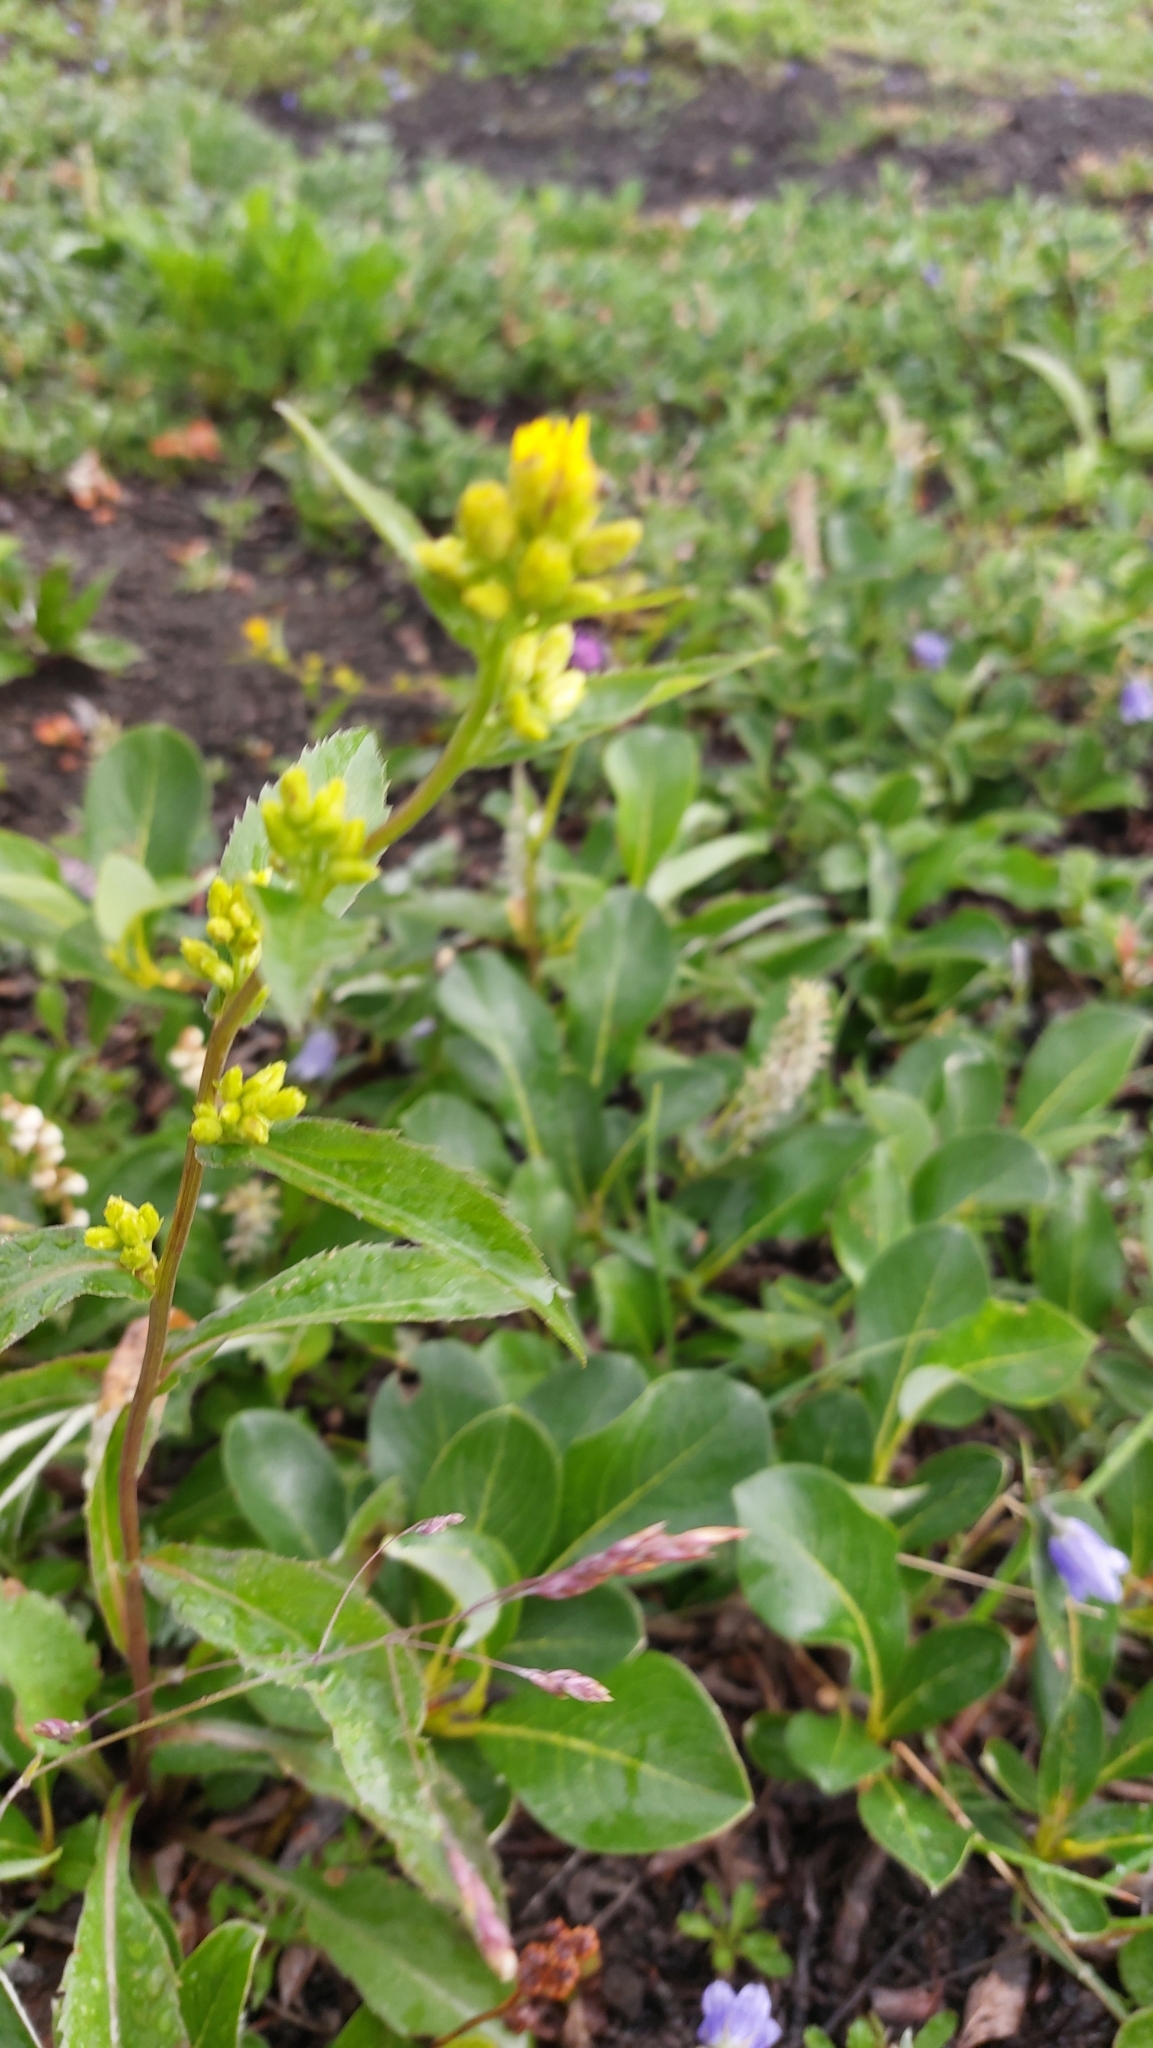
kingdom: Plantae
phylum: Tracheophyta
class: Magnoliopsida
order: Asterales
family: Asteraceae
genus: Solidago
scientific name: Solidago cuprea
